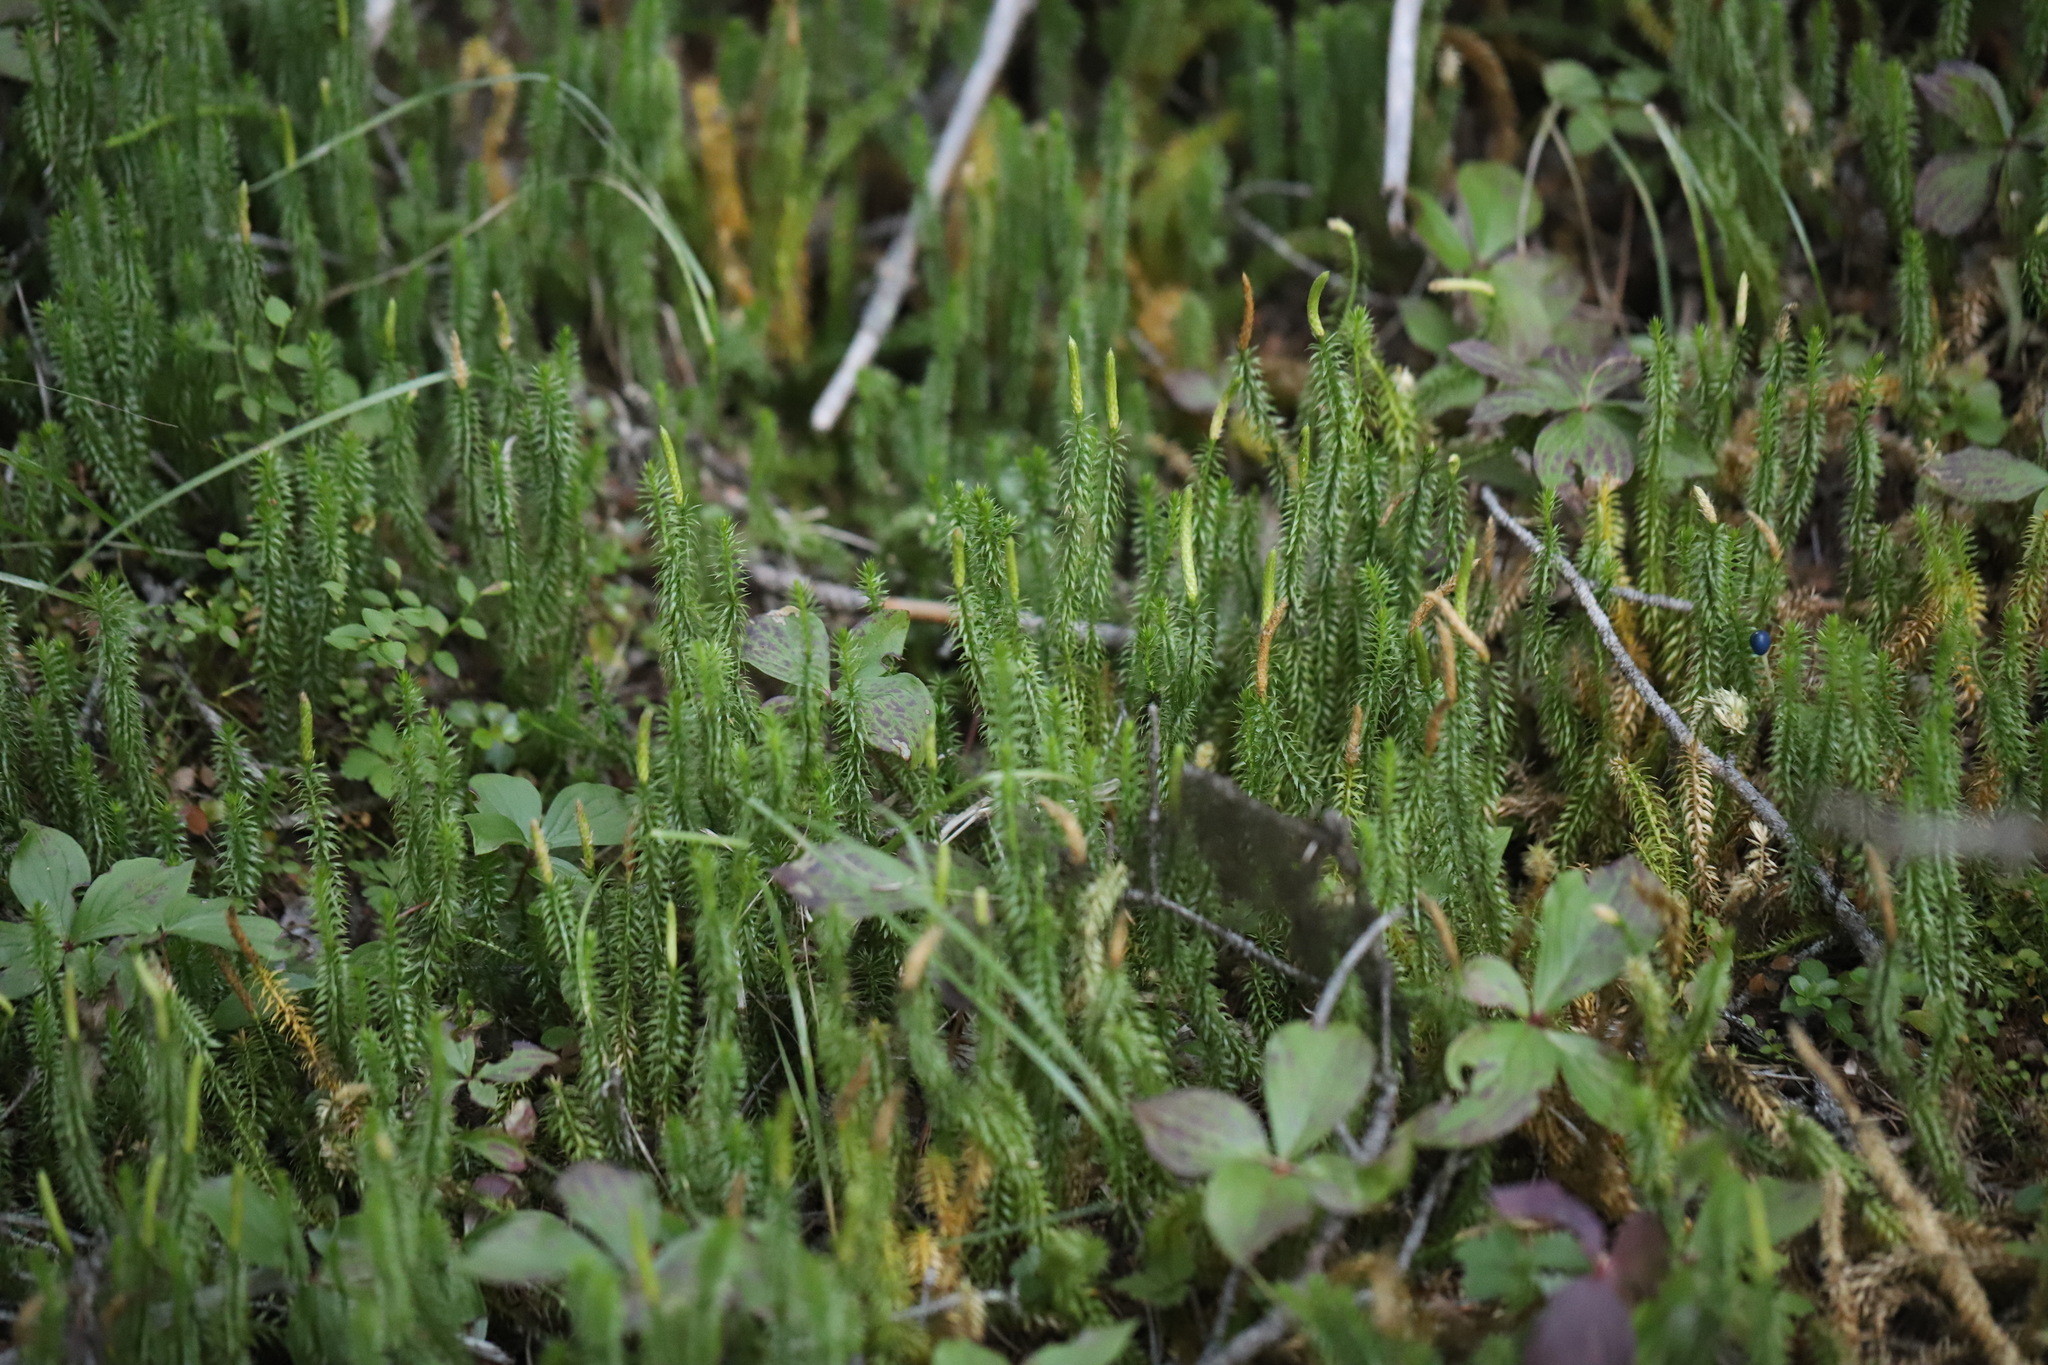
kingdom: Plantae
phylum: Tracheophyta
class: Lycopodiopsida
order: Lycopodiales
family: Lycopodiaceae
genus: Spinulum
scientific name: Spinulum annotinum
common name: Interrupted club-moss
